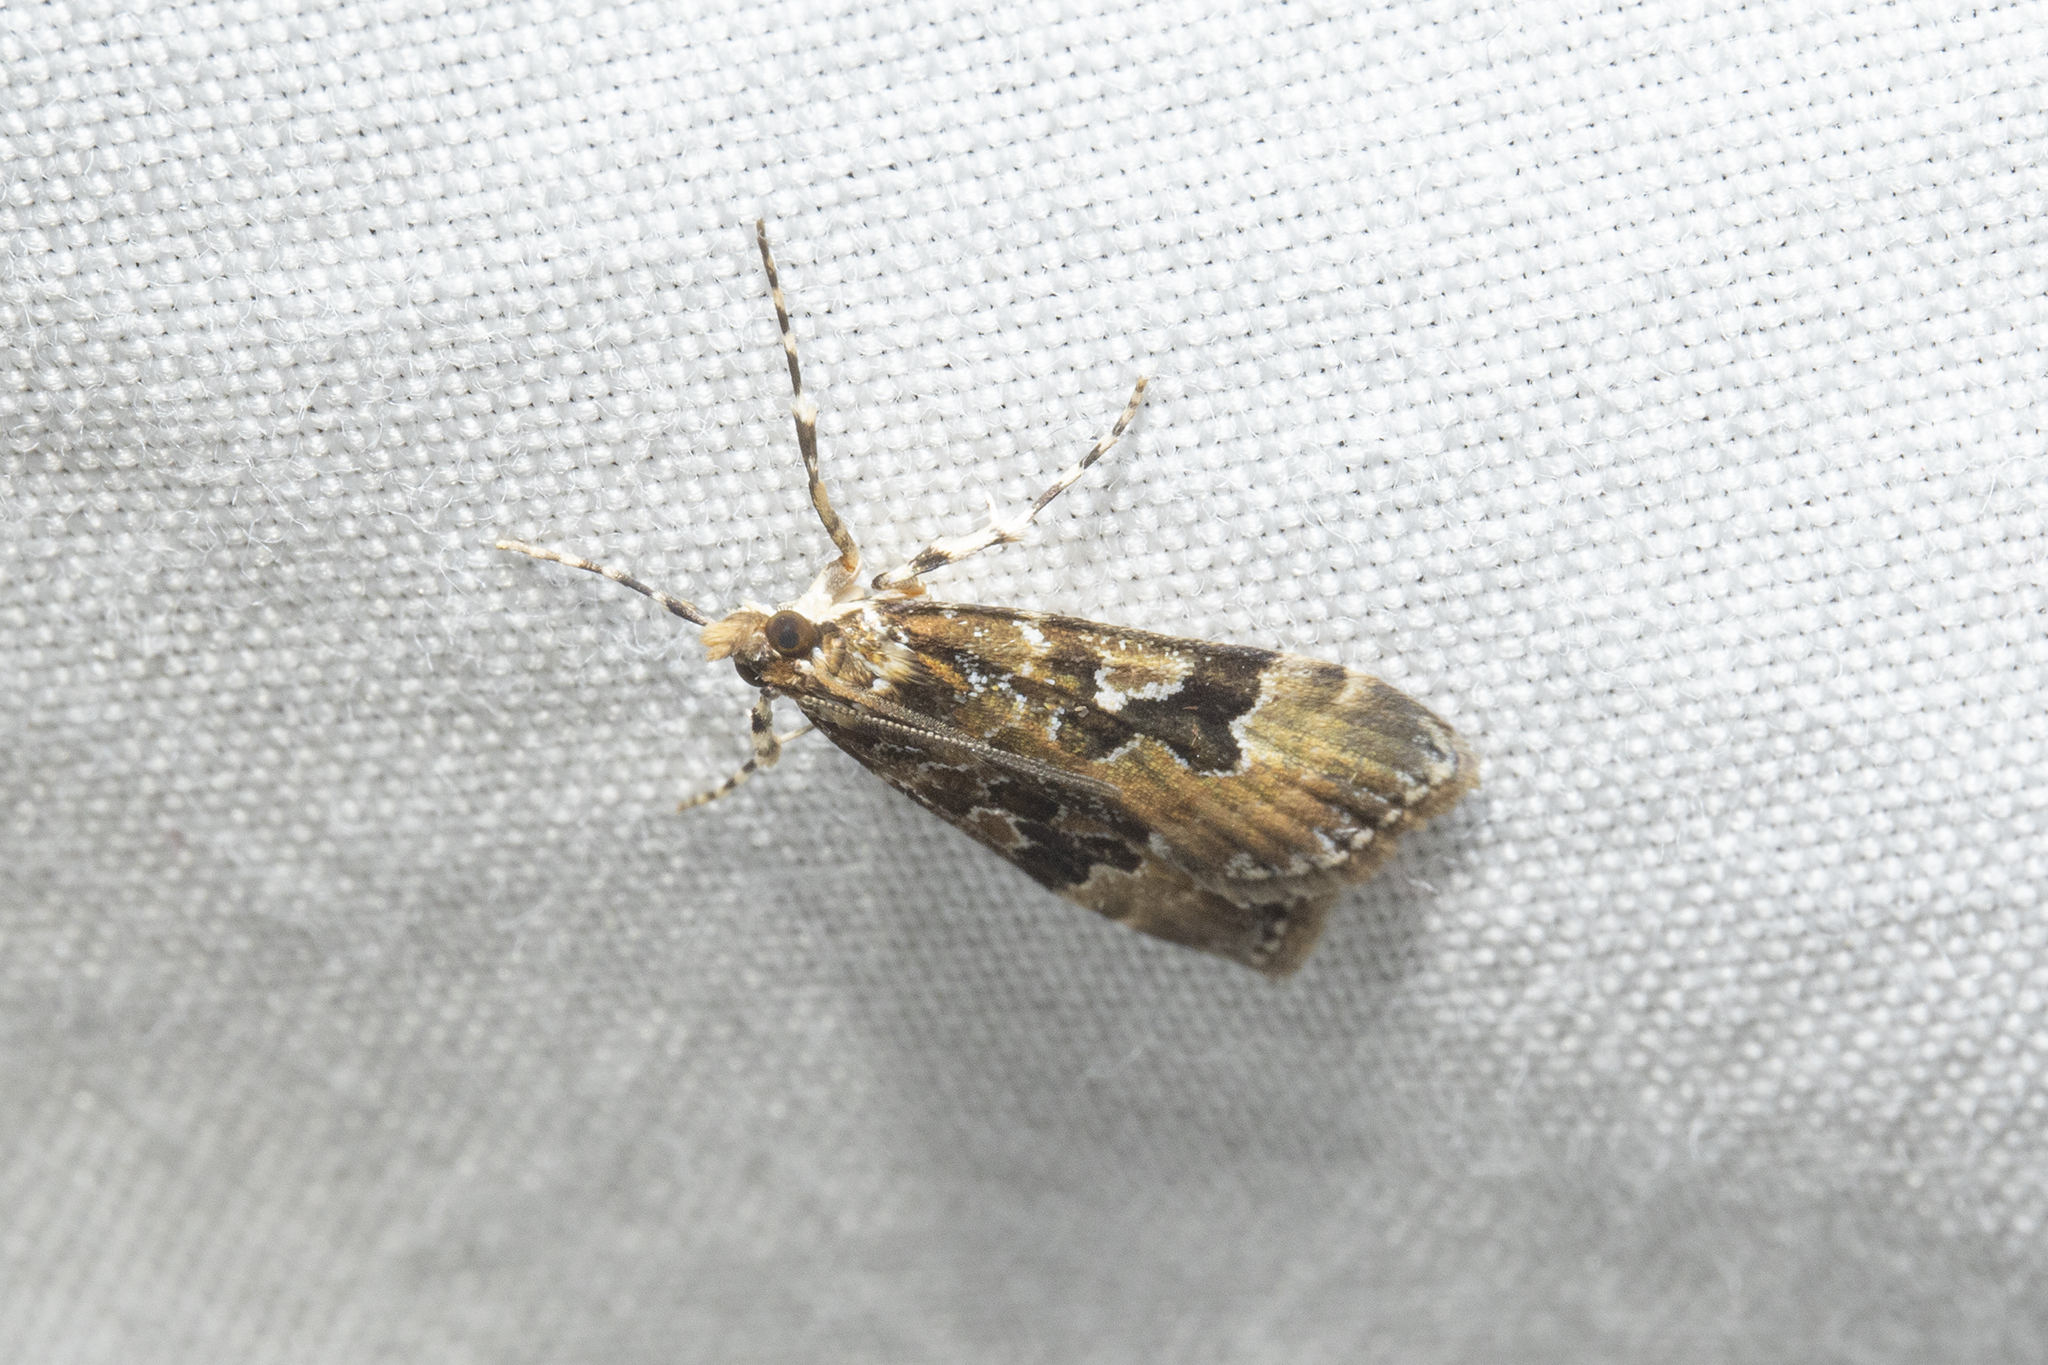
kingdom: Animalia
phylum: Arthropoda
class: Insecta
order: Lepidoptera
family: Crambidae
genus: Scoparia
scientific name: Scoparia ustimacula
